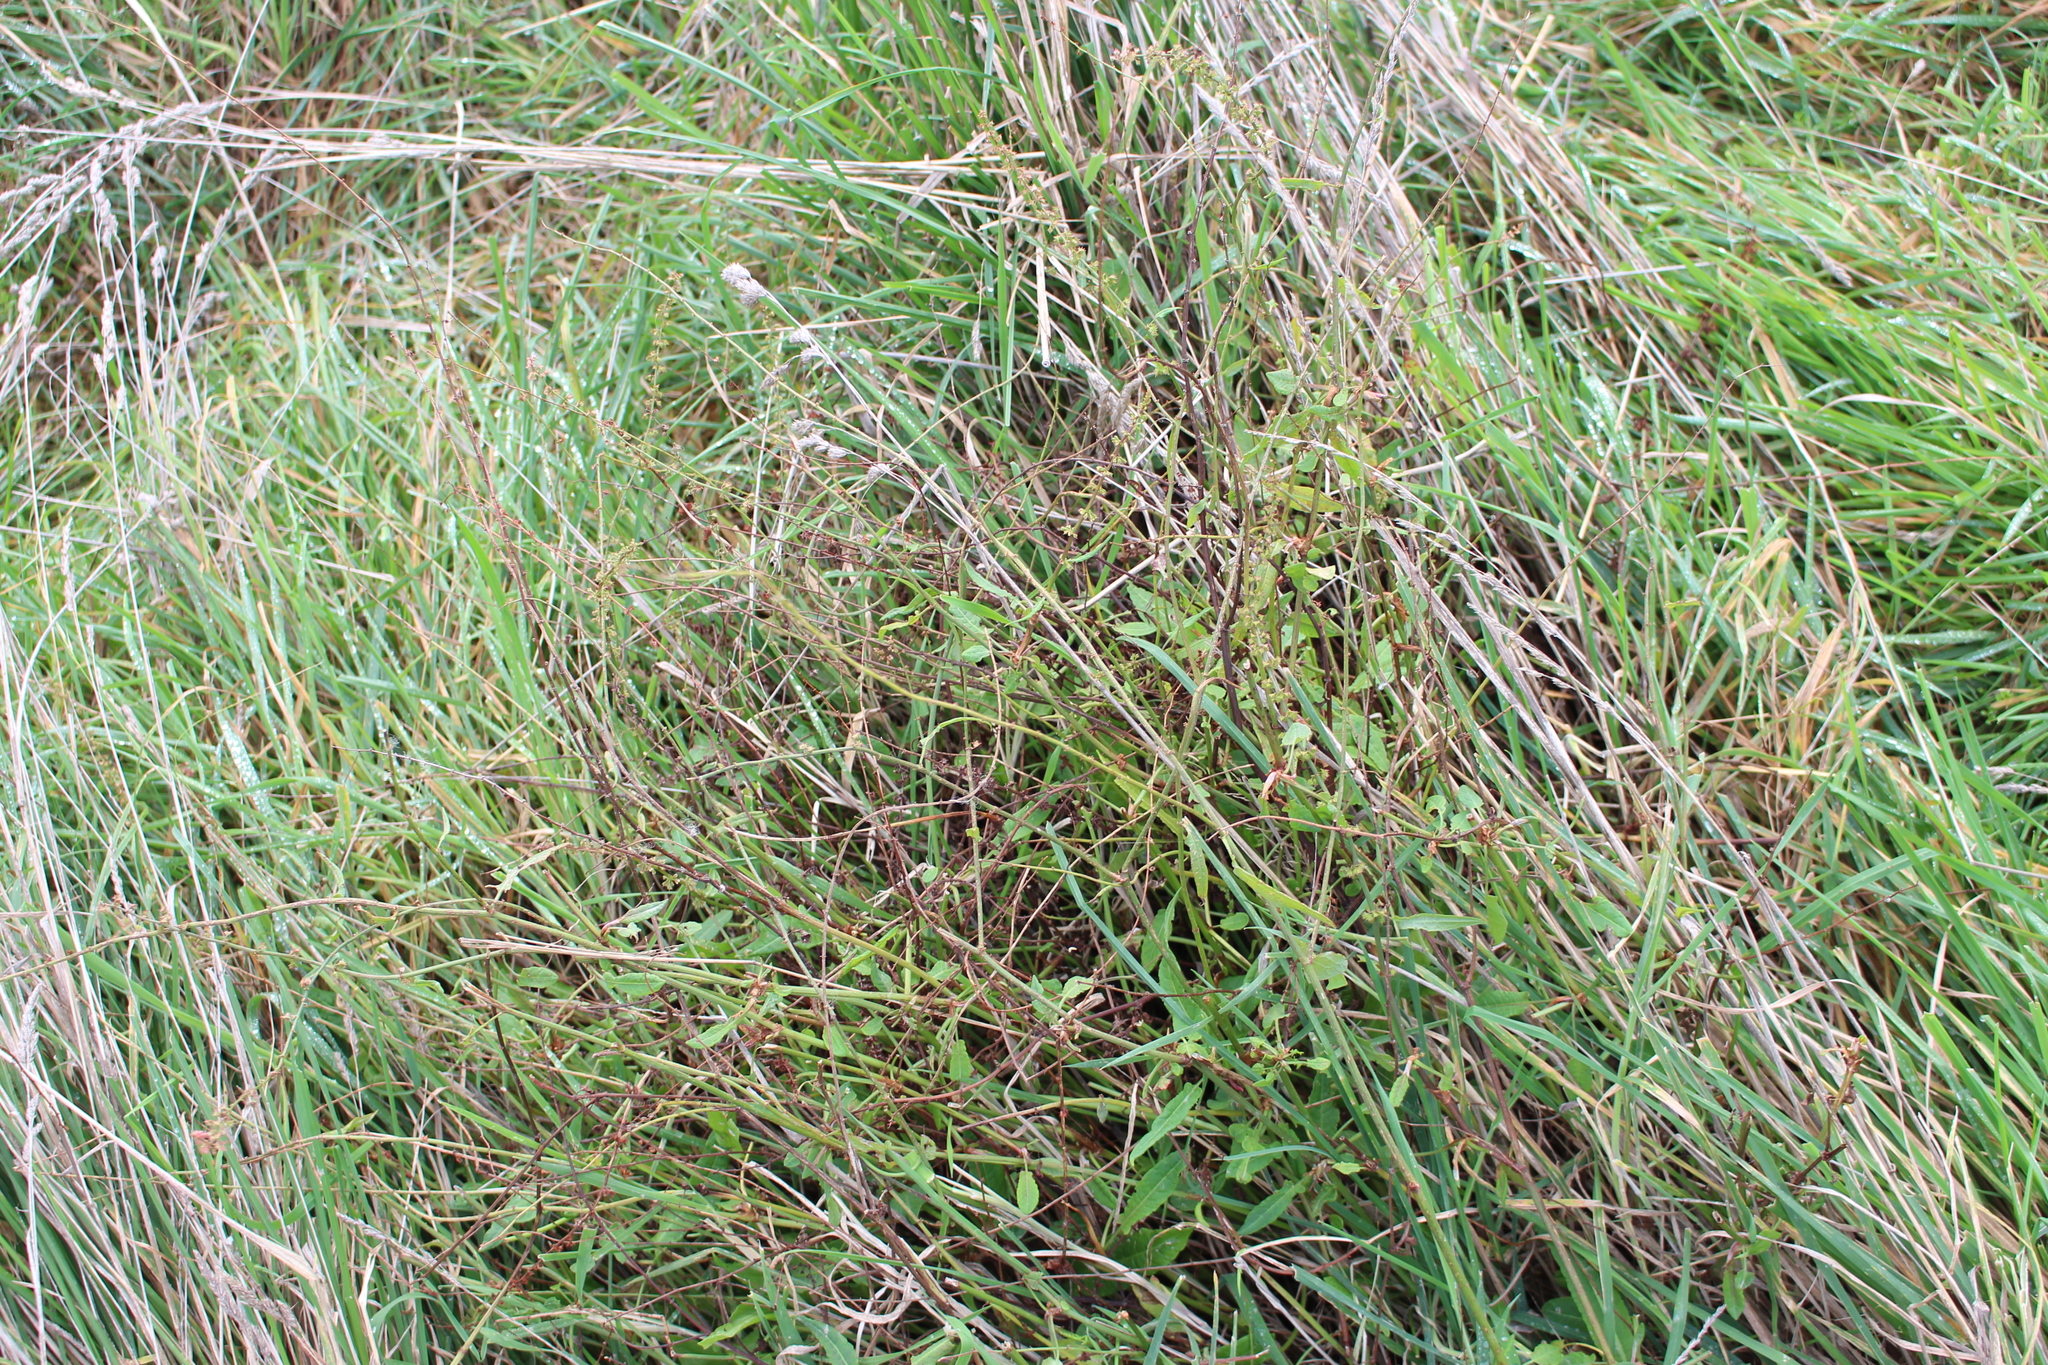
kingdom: Plantae
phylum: Tracheophyta
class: Magnoliopsida
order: Caryophyllales
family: Polygonaceae
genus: Rumex
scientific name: Rumex brownii
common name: Hooked dock
